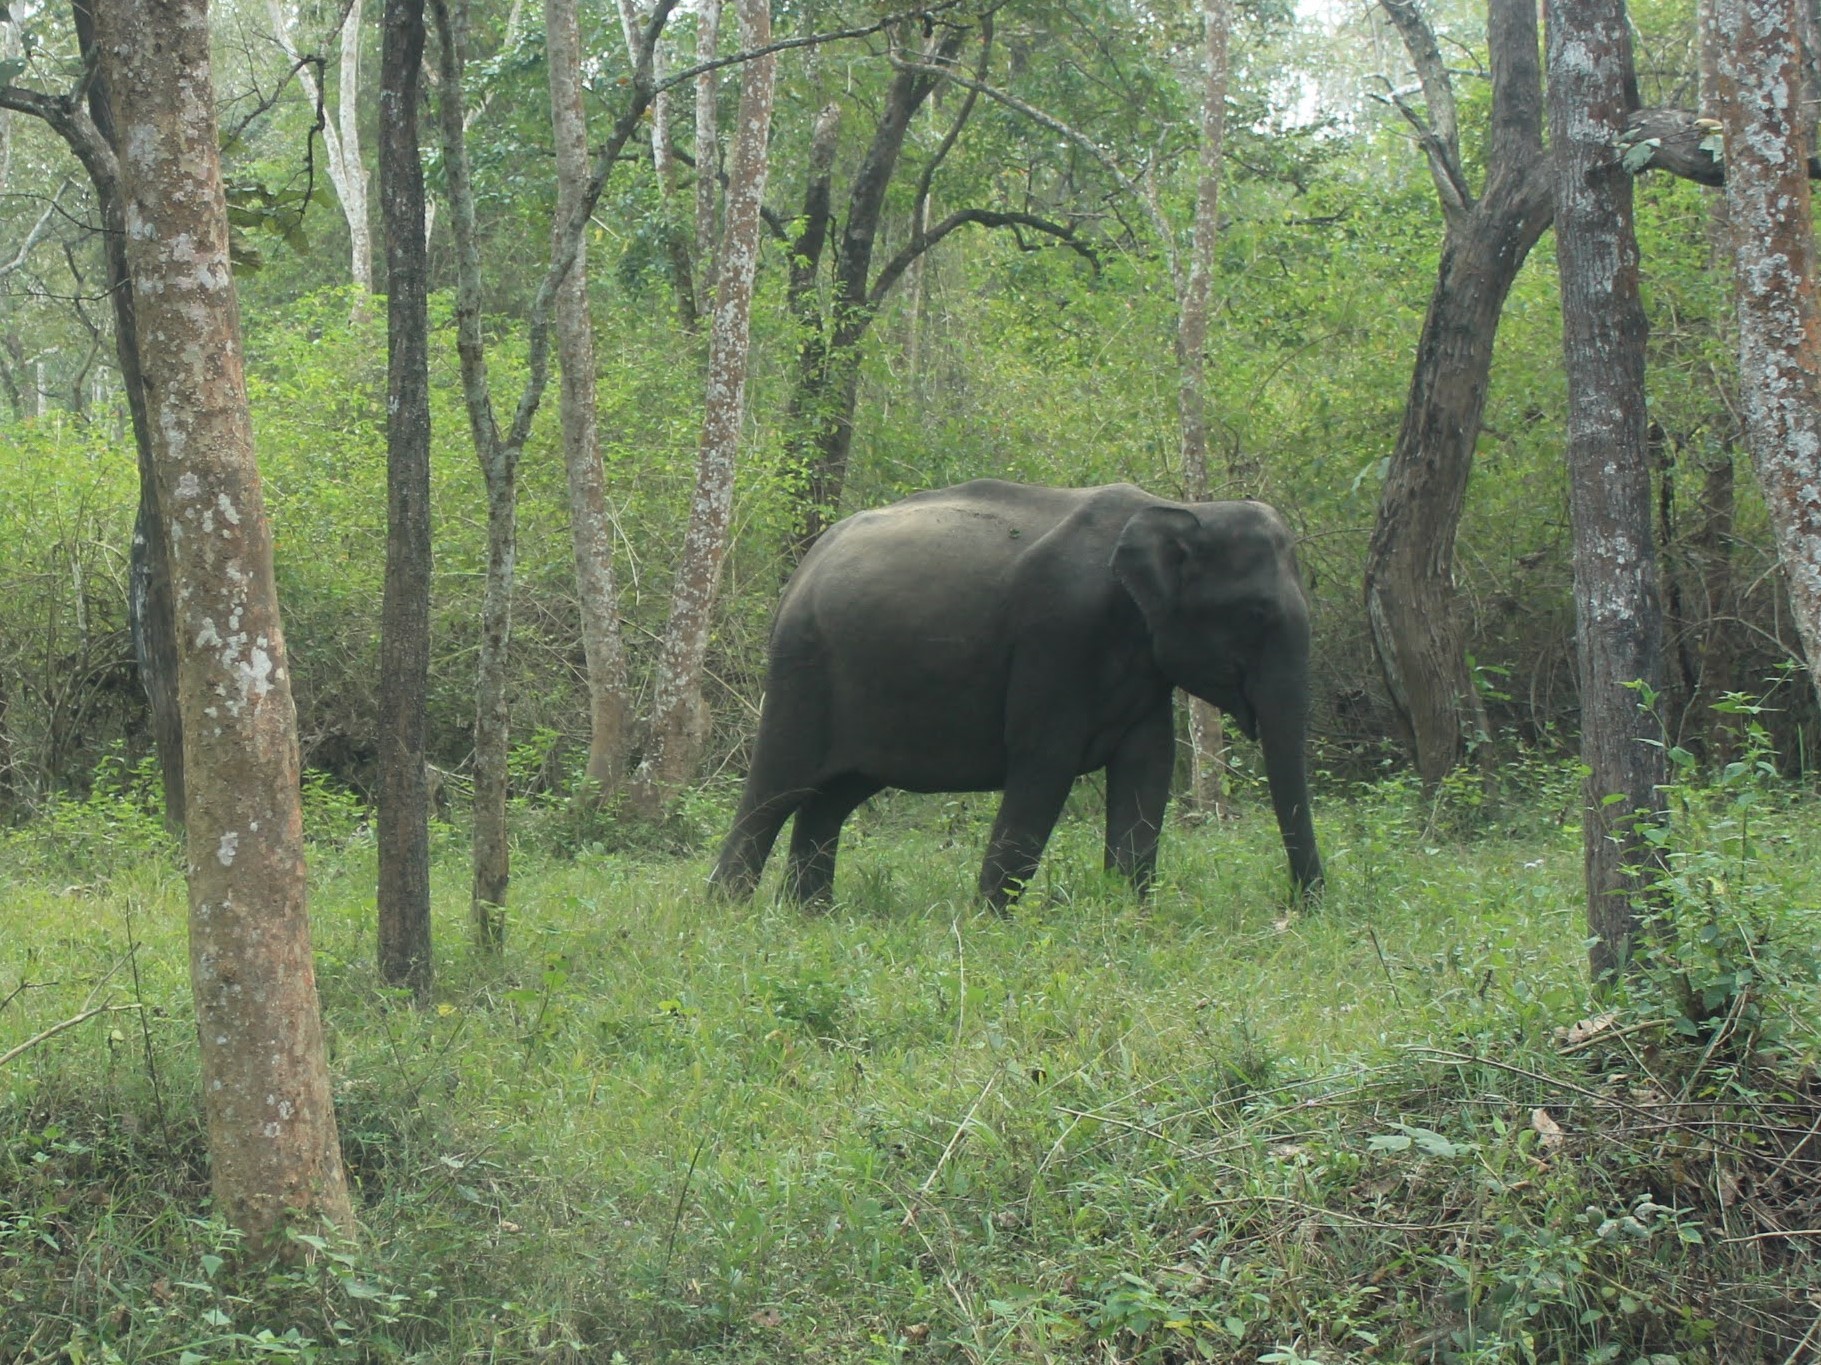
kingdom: Animalia
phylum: Chordata
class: Mammalia
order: Proboscidea
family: Elephantidae
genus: Elephas
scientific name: Elephas maximus
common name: Asian elephant
